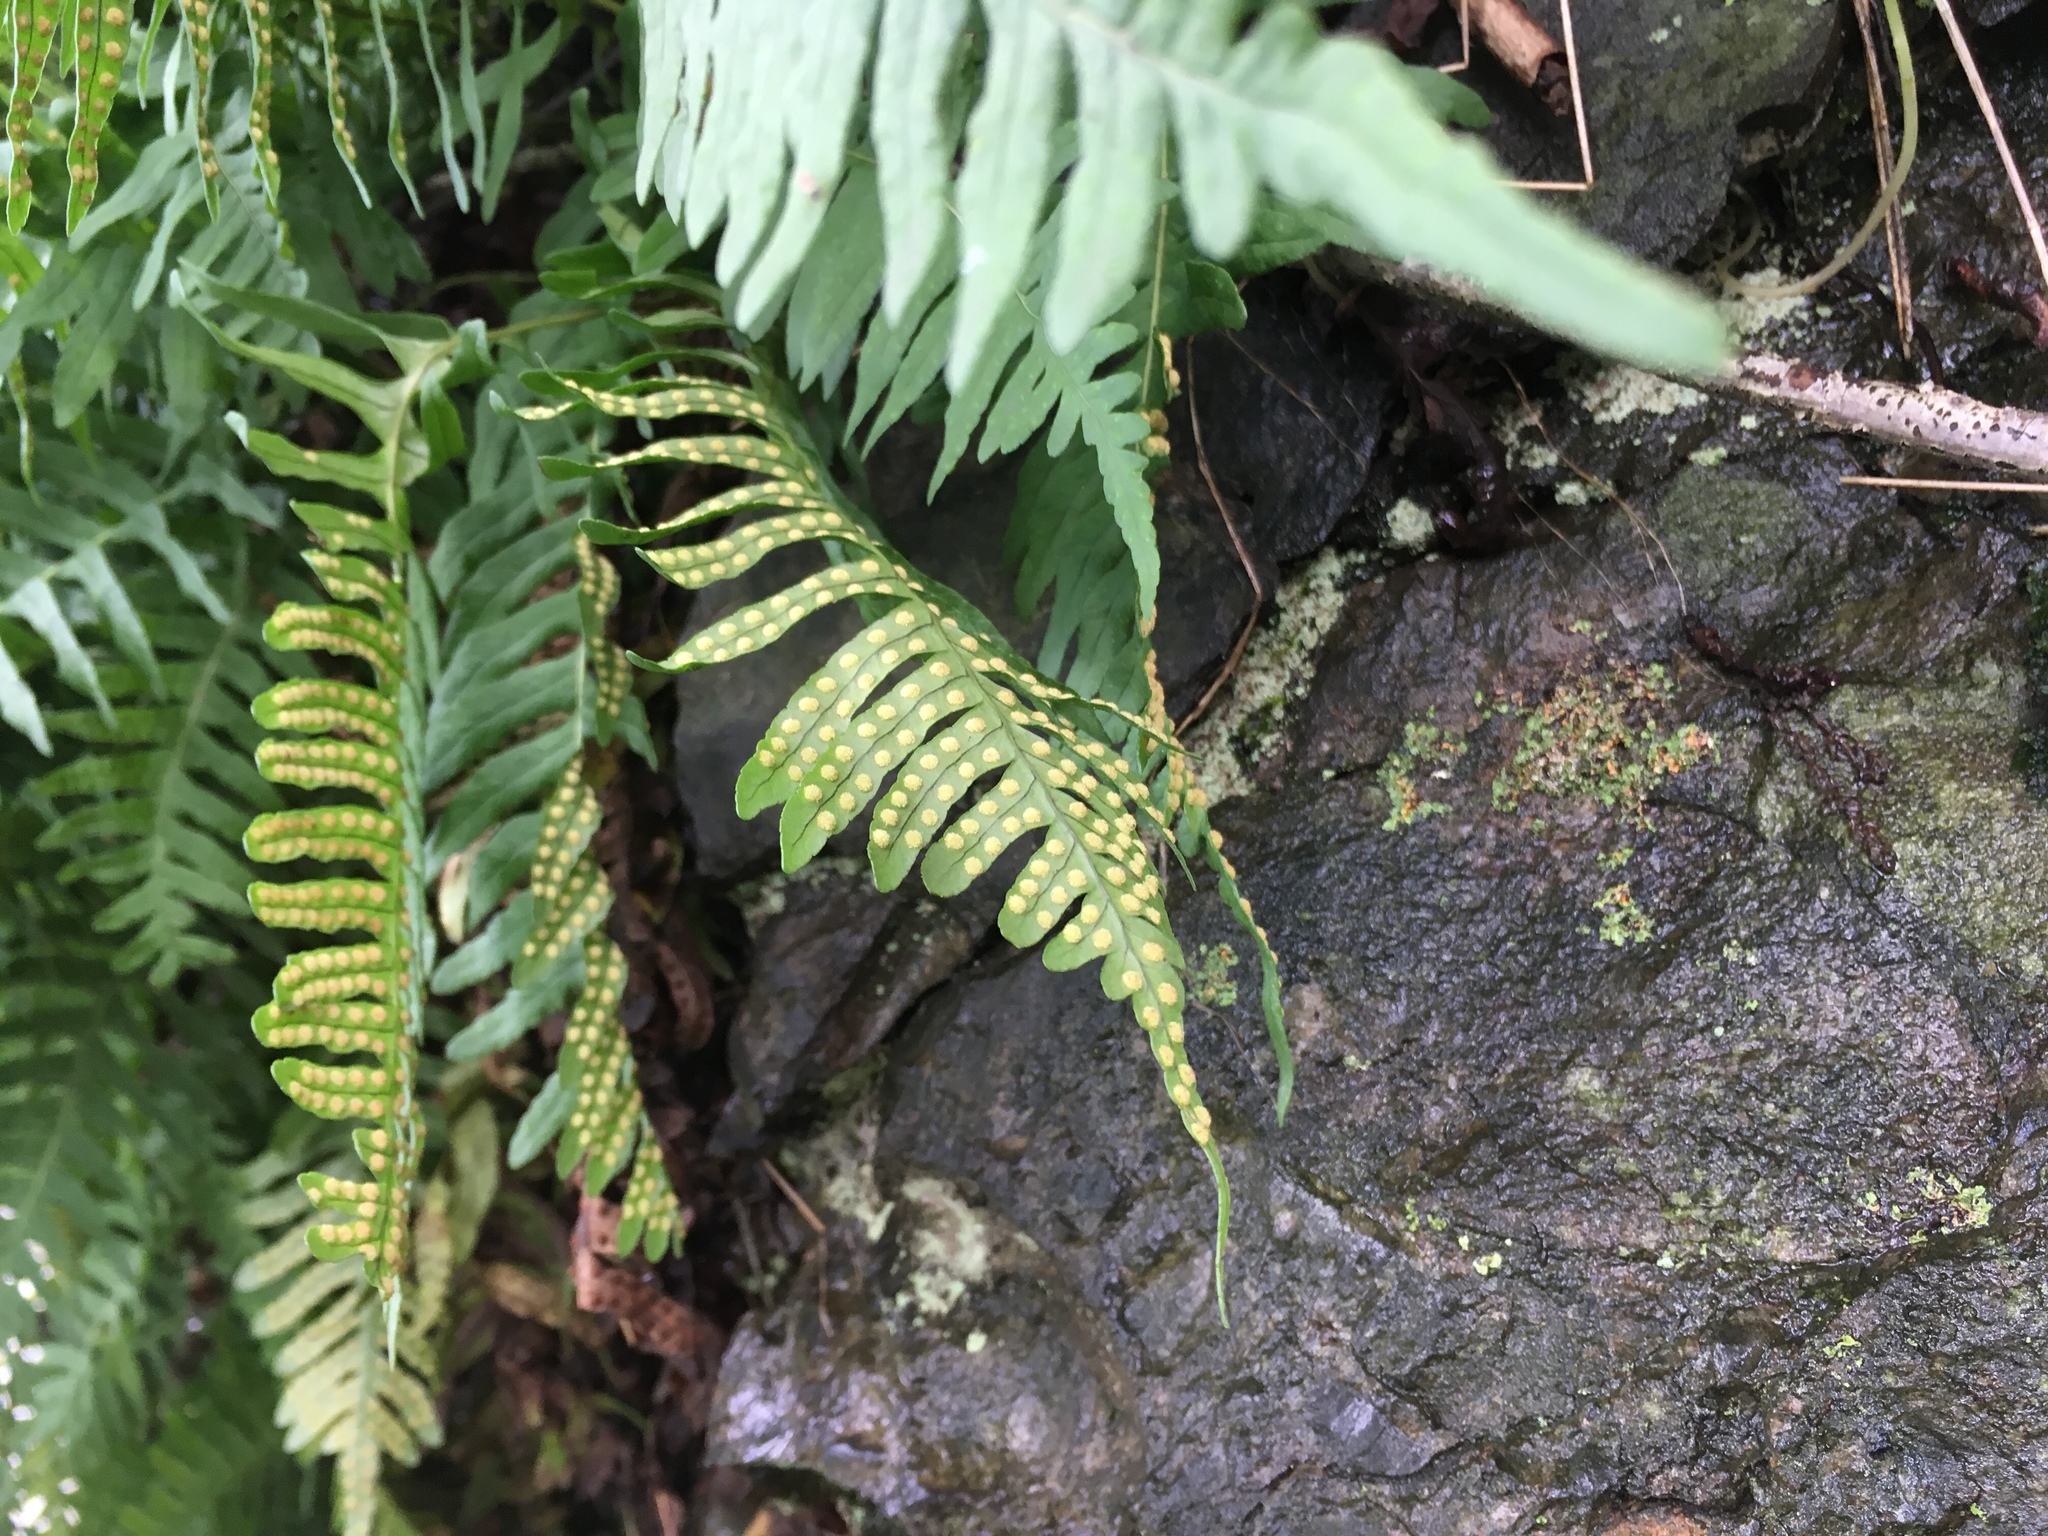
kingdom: Plantae
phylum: Tracheophyta
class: Polypodiopsida
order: Polypodiales
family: Polypodiaceae
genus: Polypodium
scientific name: Polypodium
